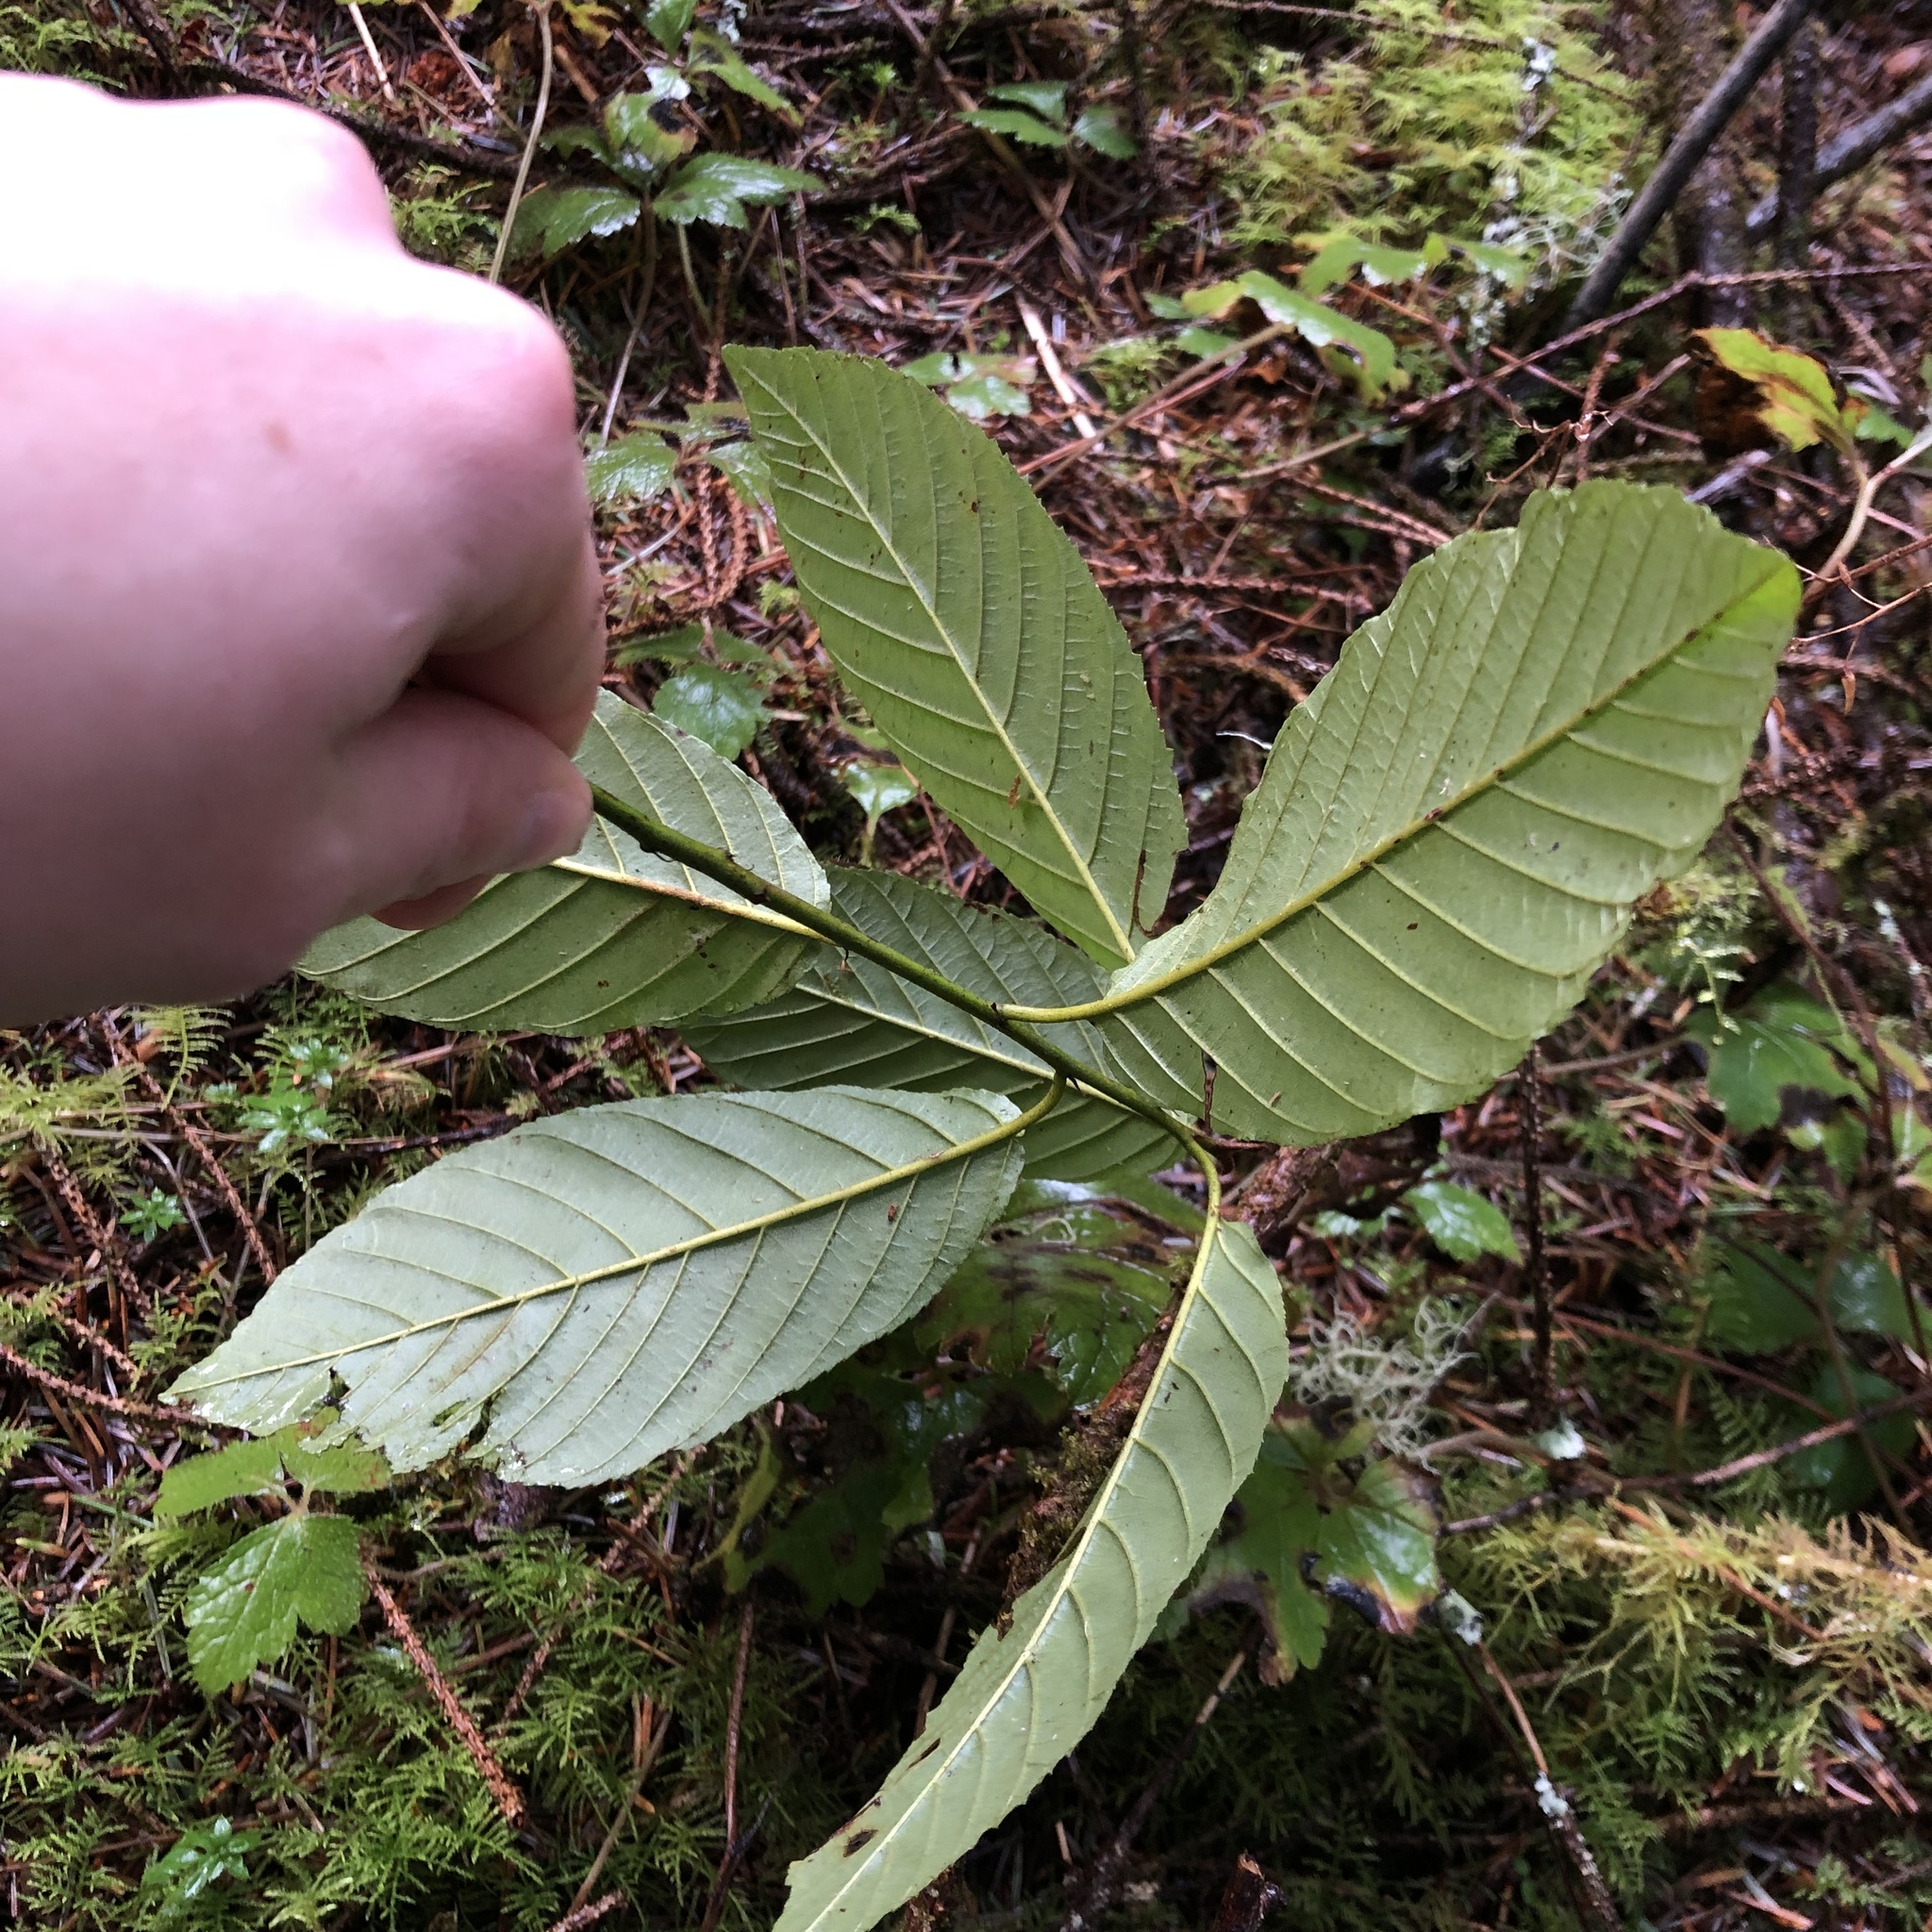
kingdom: Plantae
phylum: Tracheophyta
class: Magnoliopsida
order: Rosales
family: Rhamnaceae
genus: Frangula
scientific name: Frangula purshiana
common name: Cascara buckthorn
